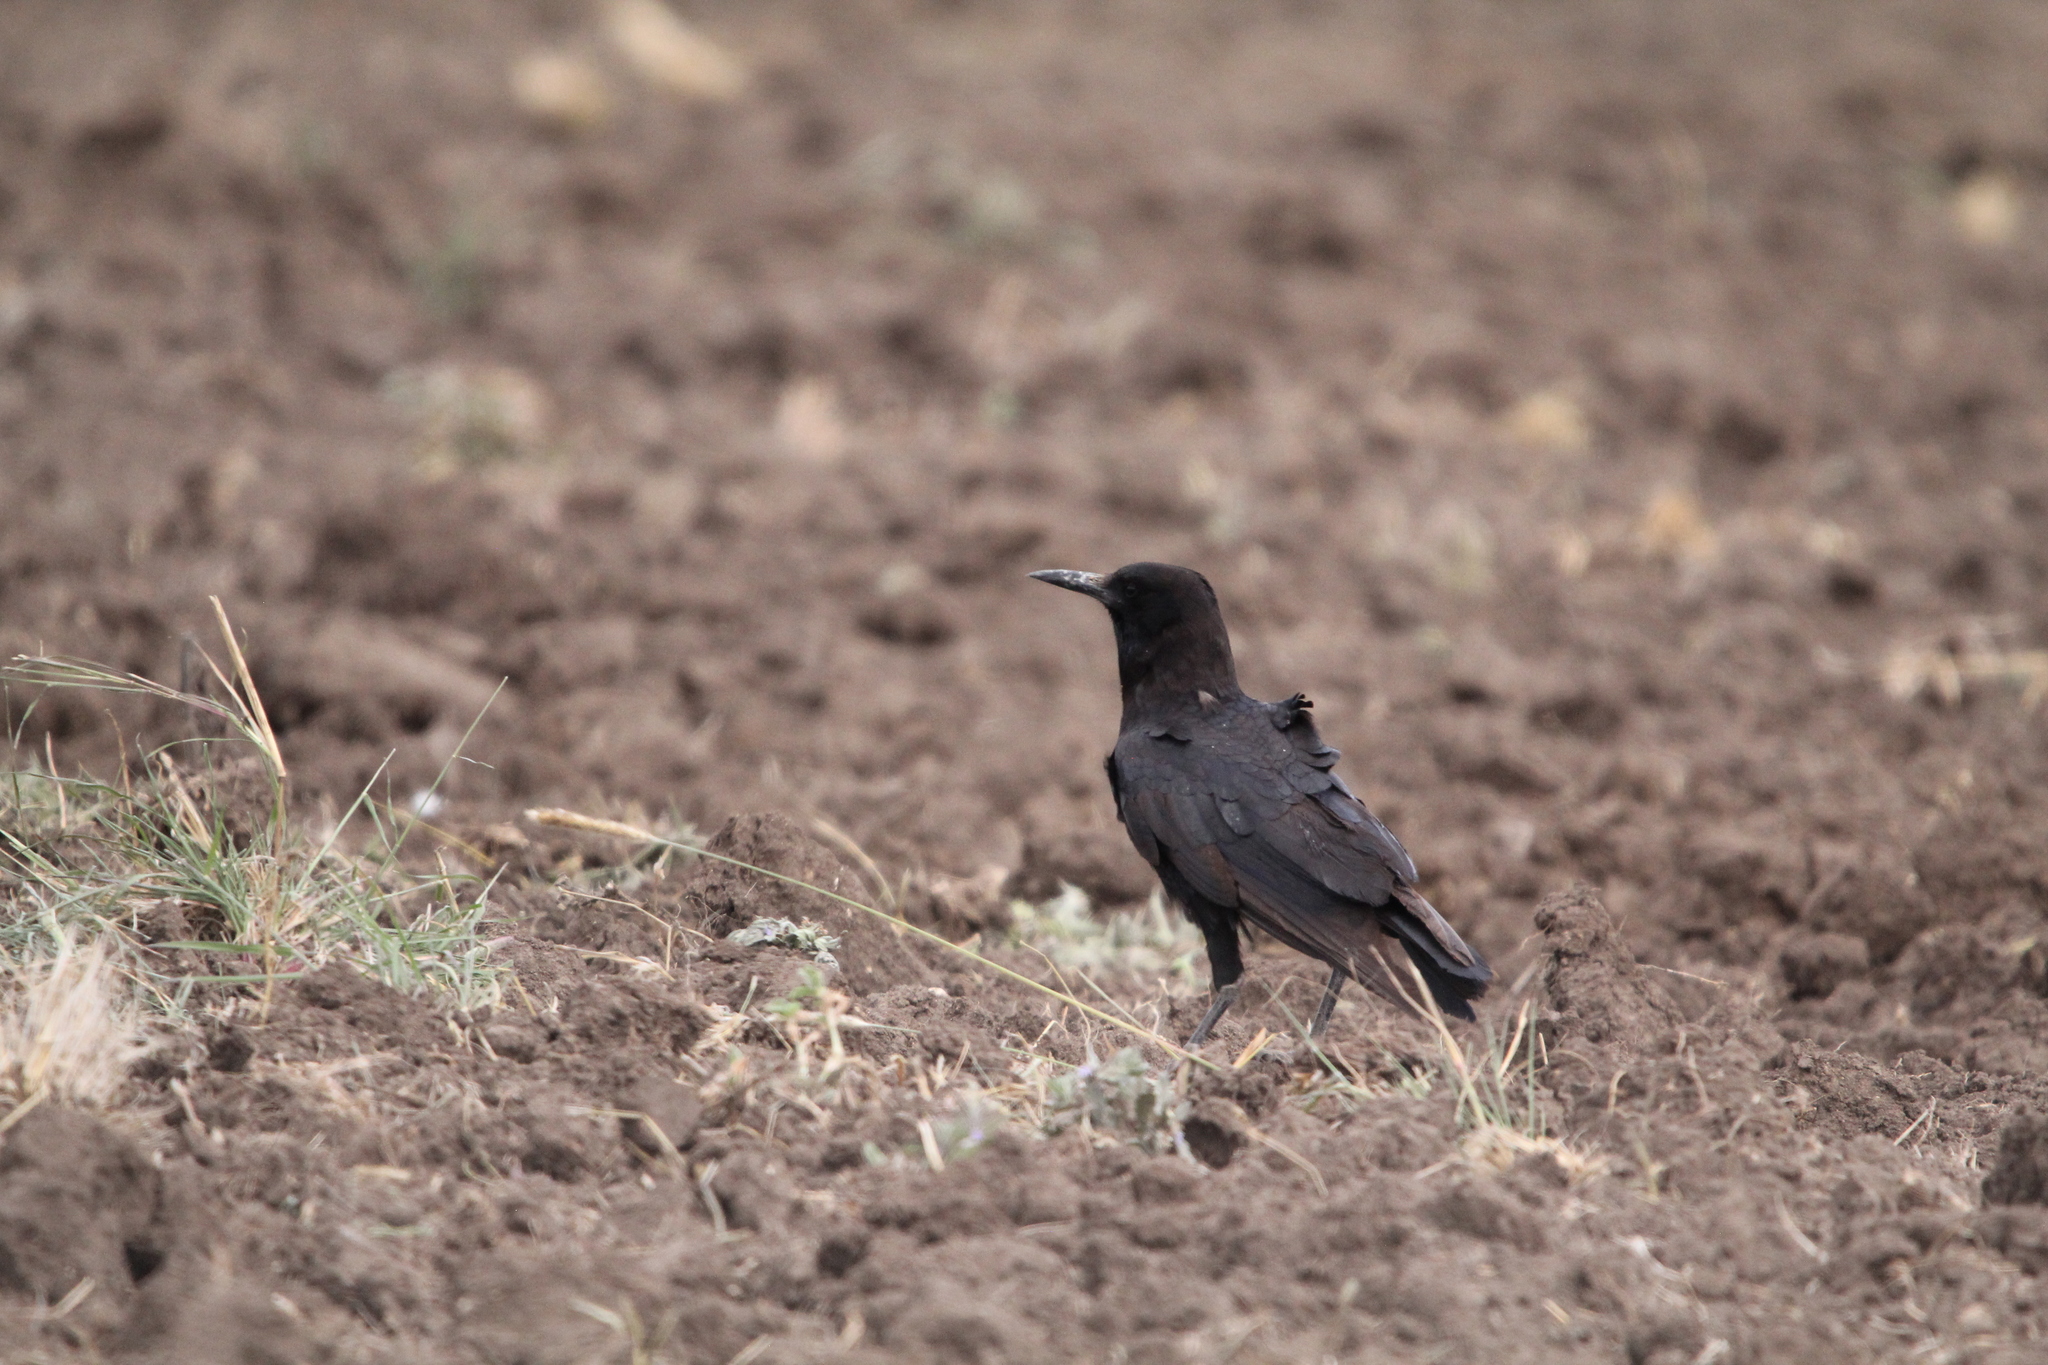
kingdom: Animalia
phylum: Chordata
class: Aves
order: Passeriformes
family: Corvidae
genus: Corvus
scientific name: Corvus capensis
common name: Cape crow
